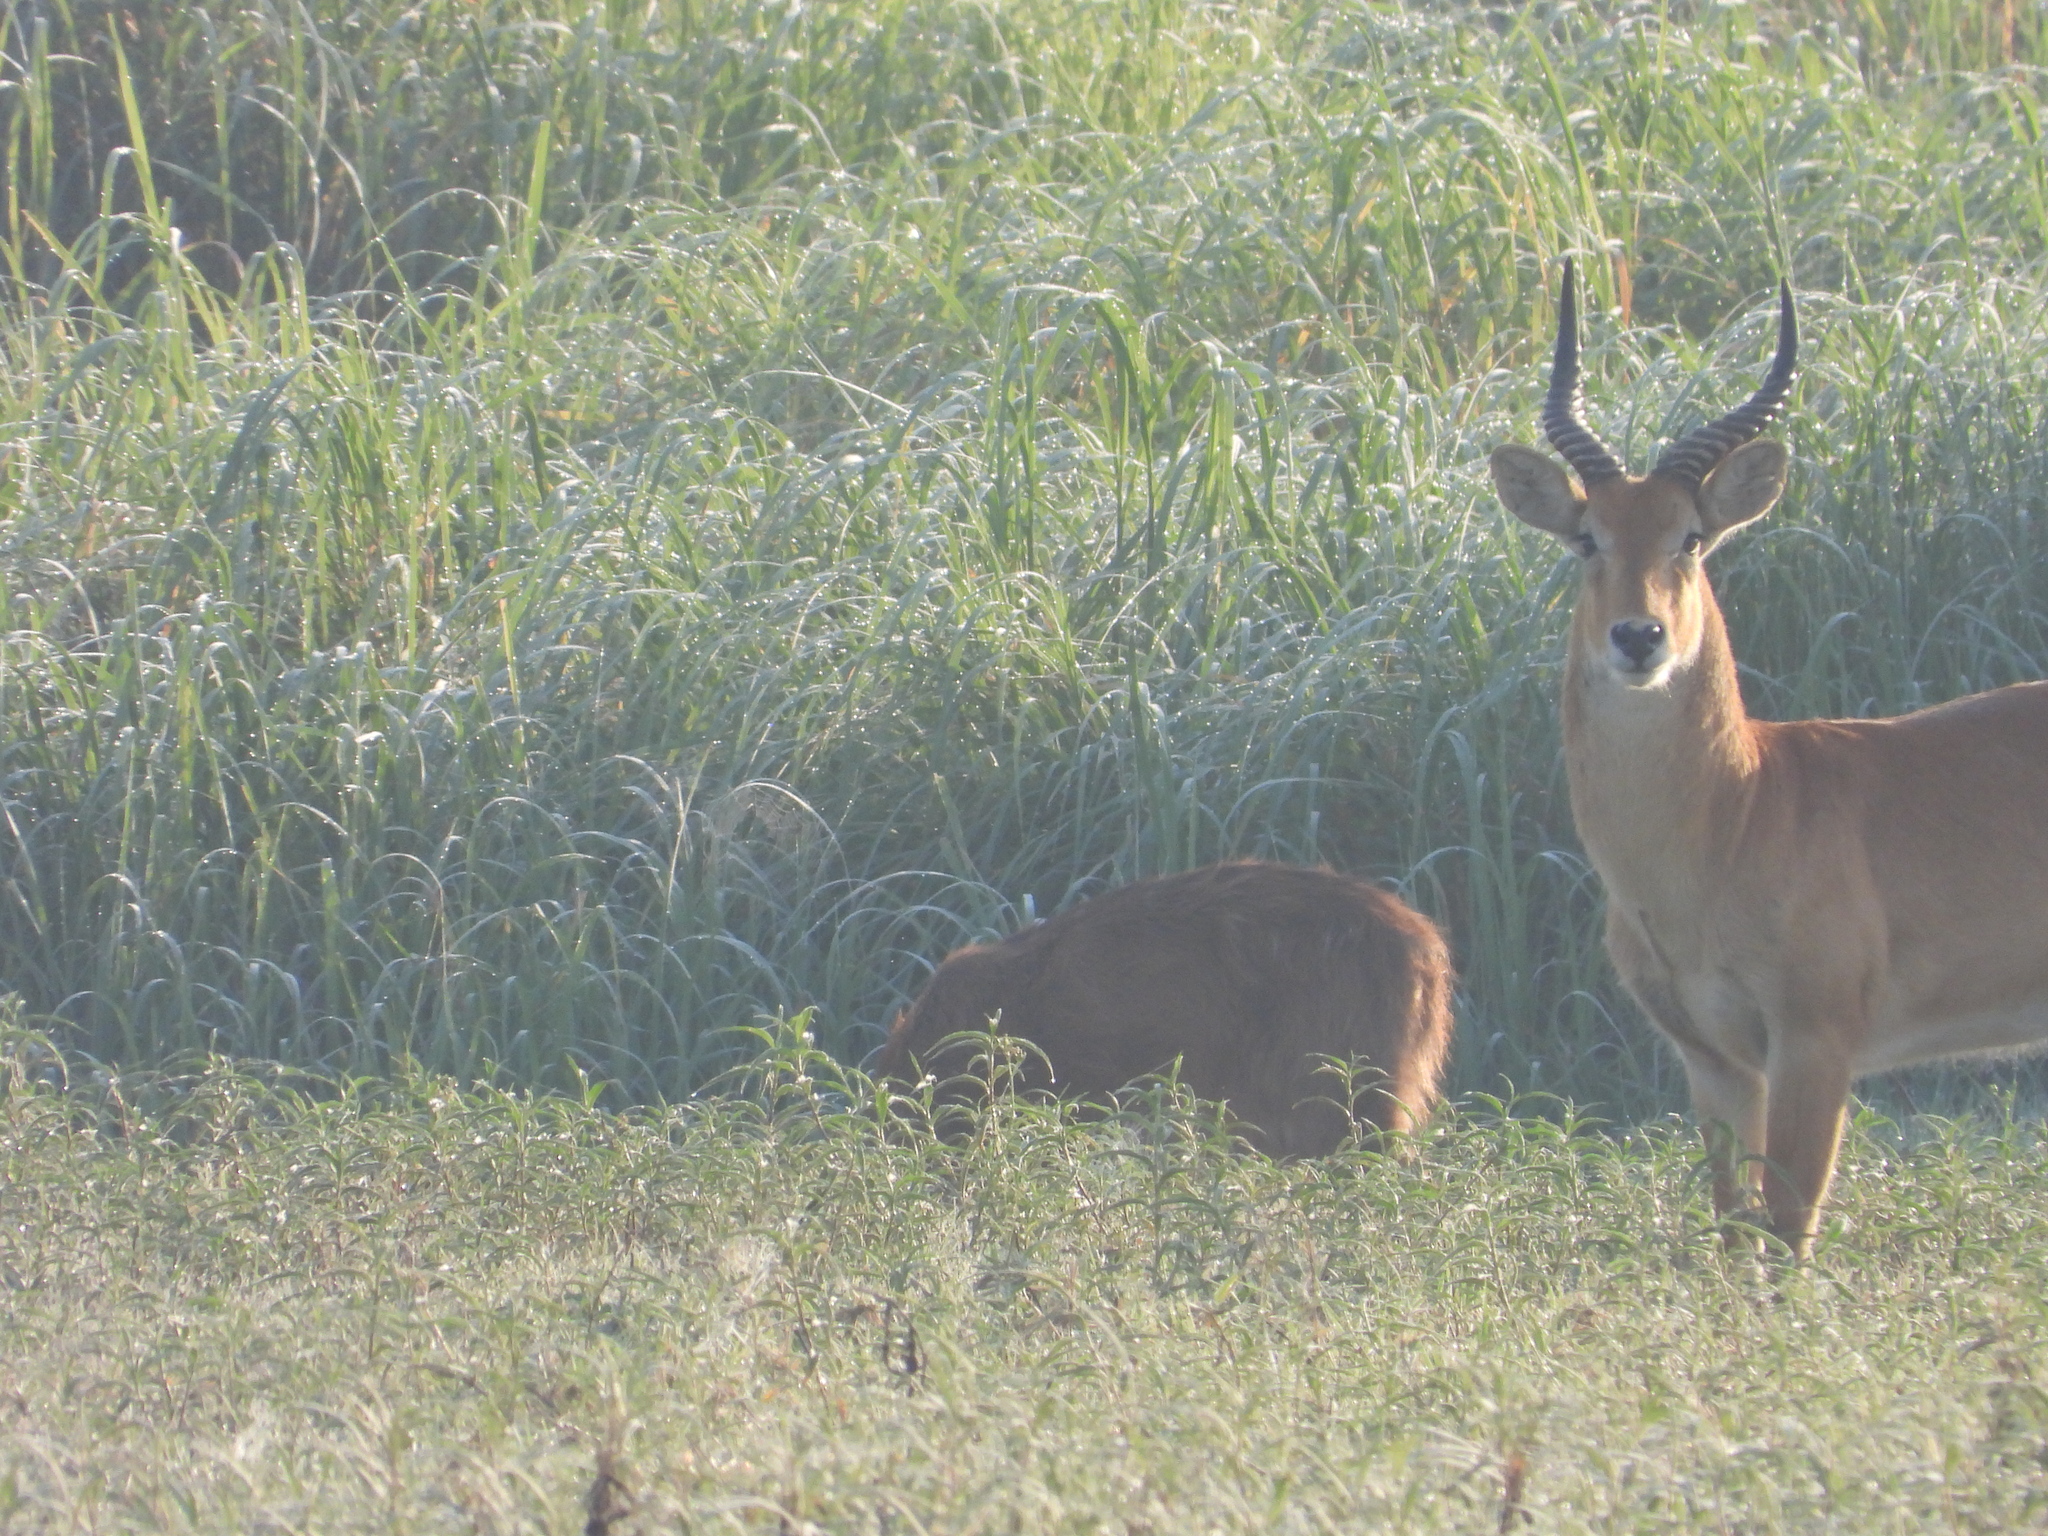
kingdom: Animalia
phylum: Chordata
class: Mammalia
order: Artiodactyla
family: Bovidae
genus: Kobus
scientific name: Kobus vardonii
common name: Puku
